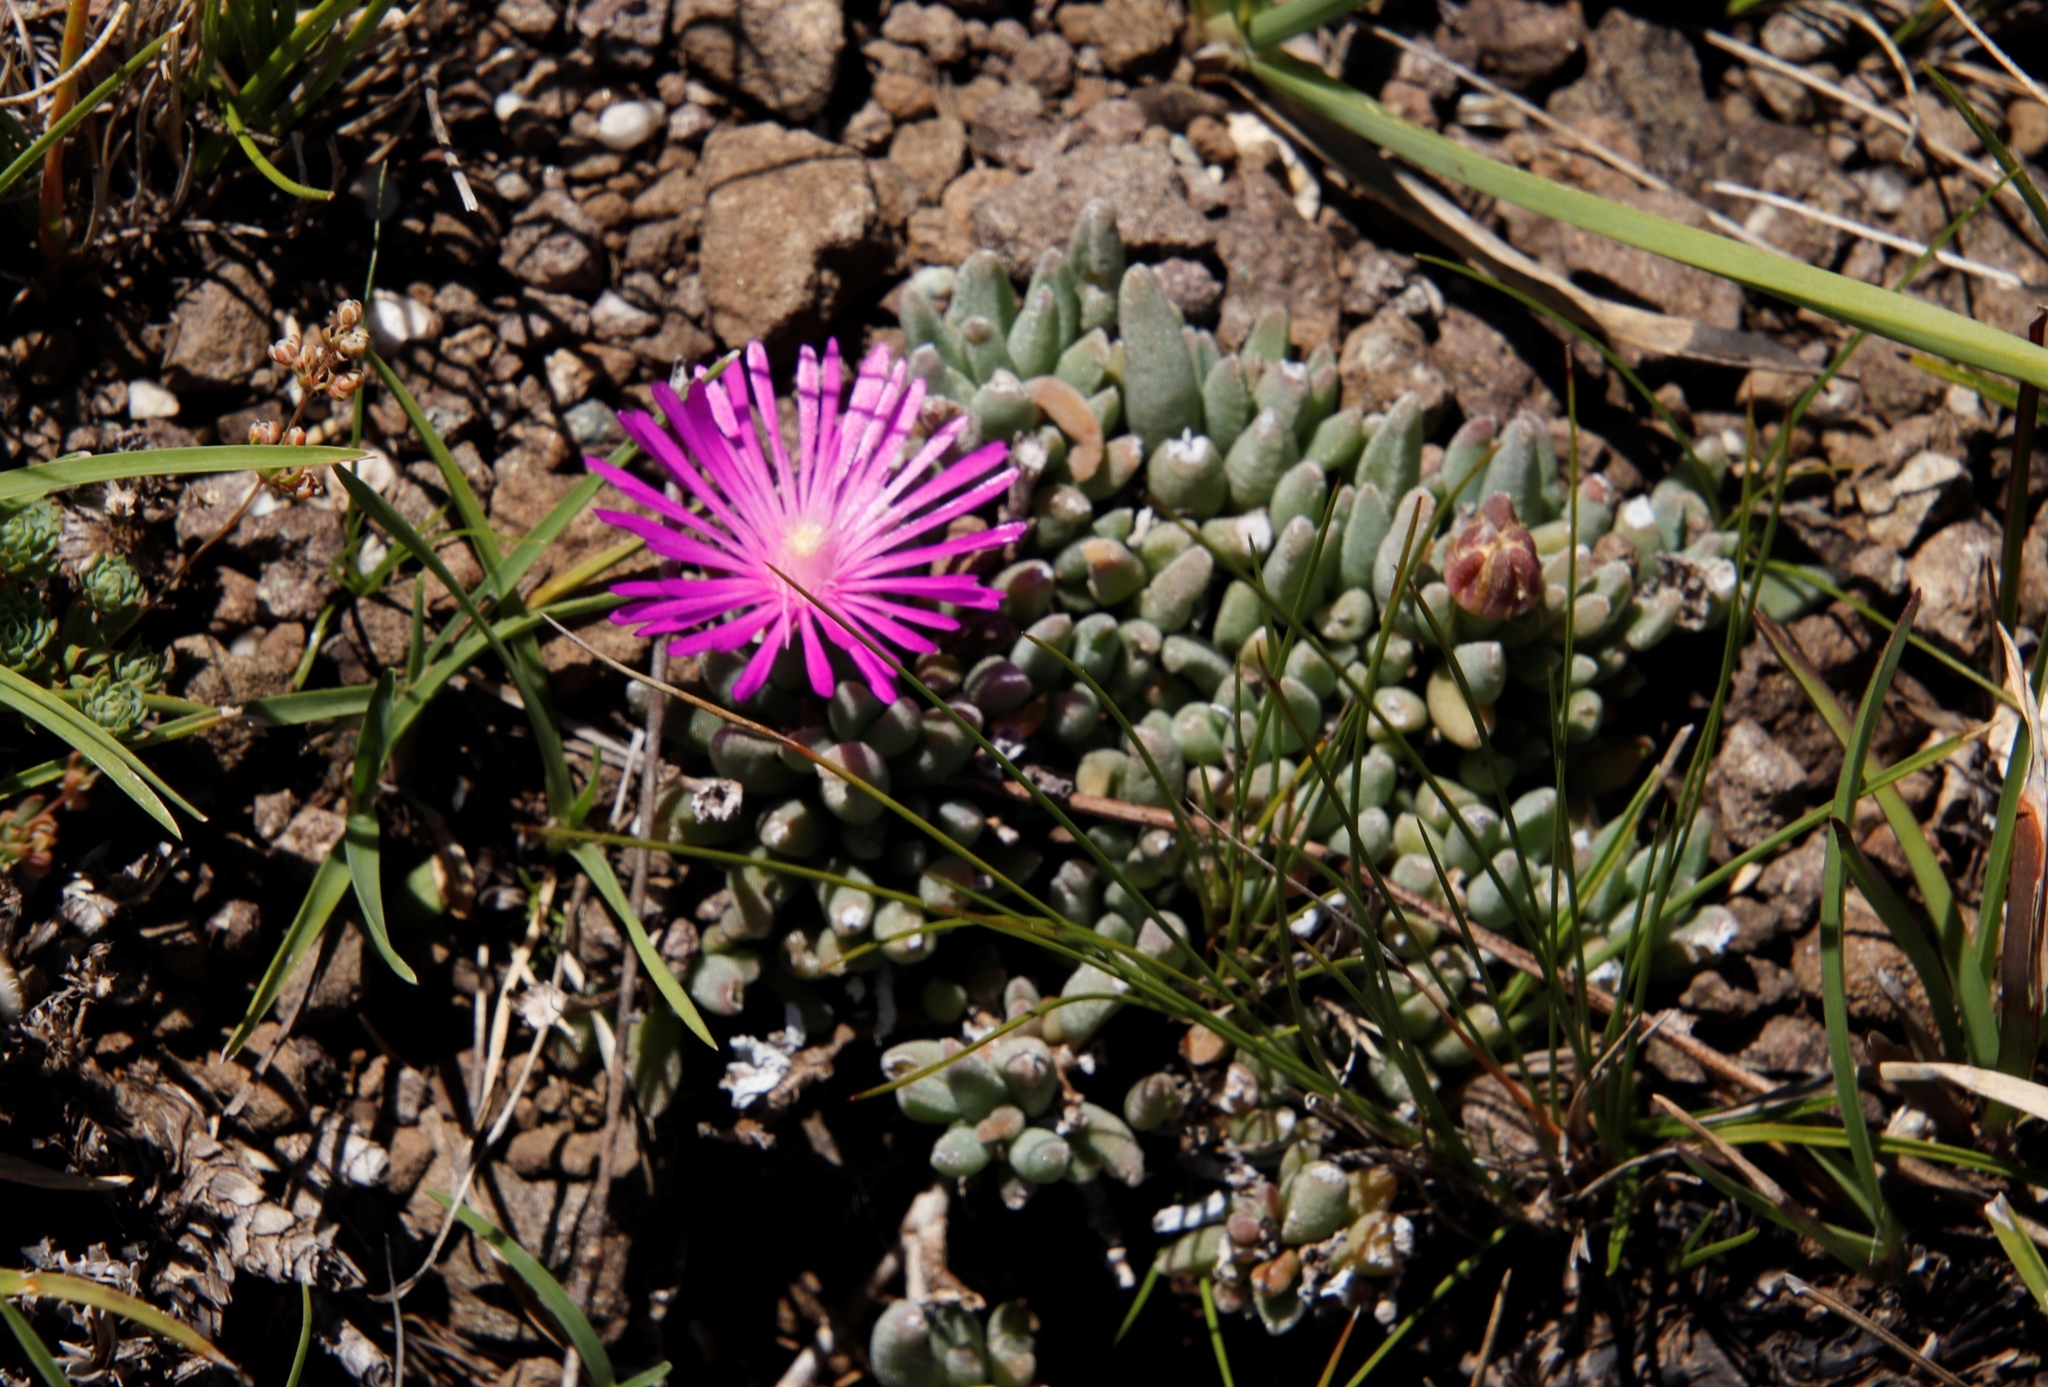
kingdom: Plantae
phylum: Tracheophyta
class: Magnoliopsida
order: Caryophyllales
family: Aizoaceae
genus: Delosperma
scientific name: Delosperma basuticum
